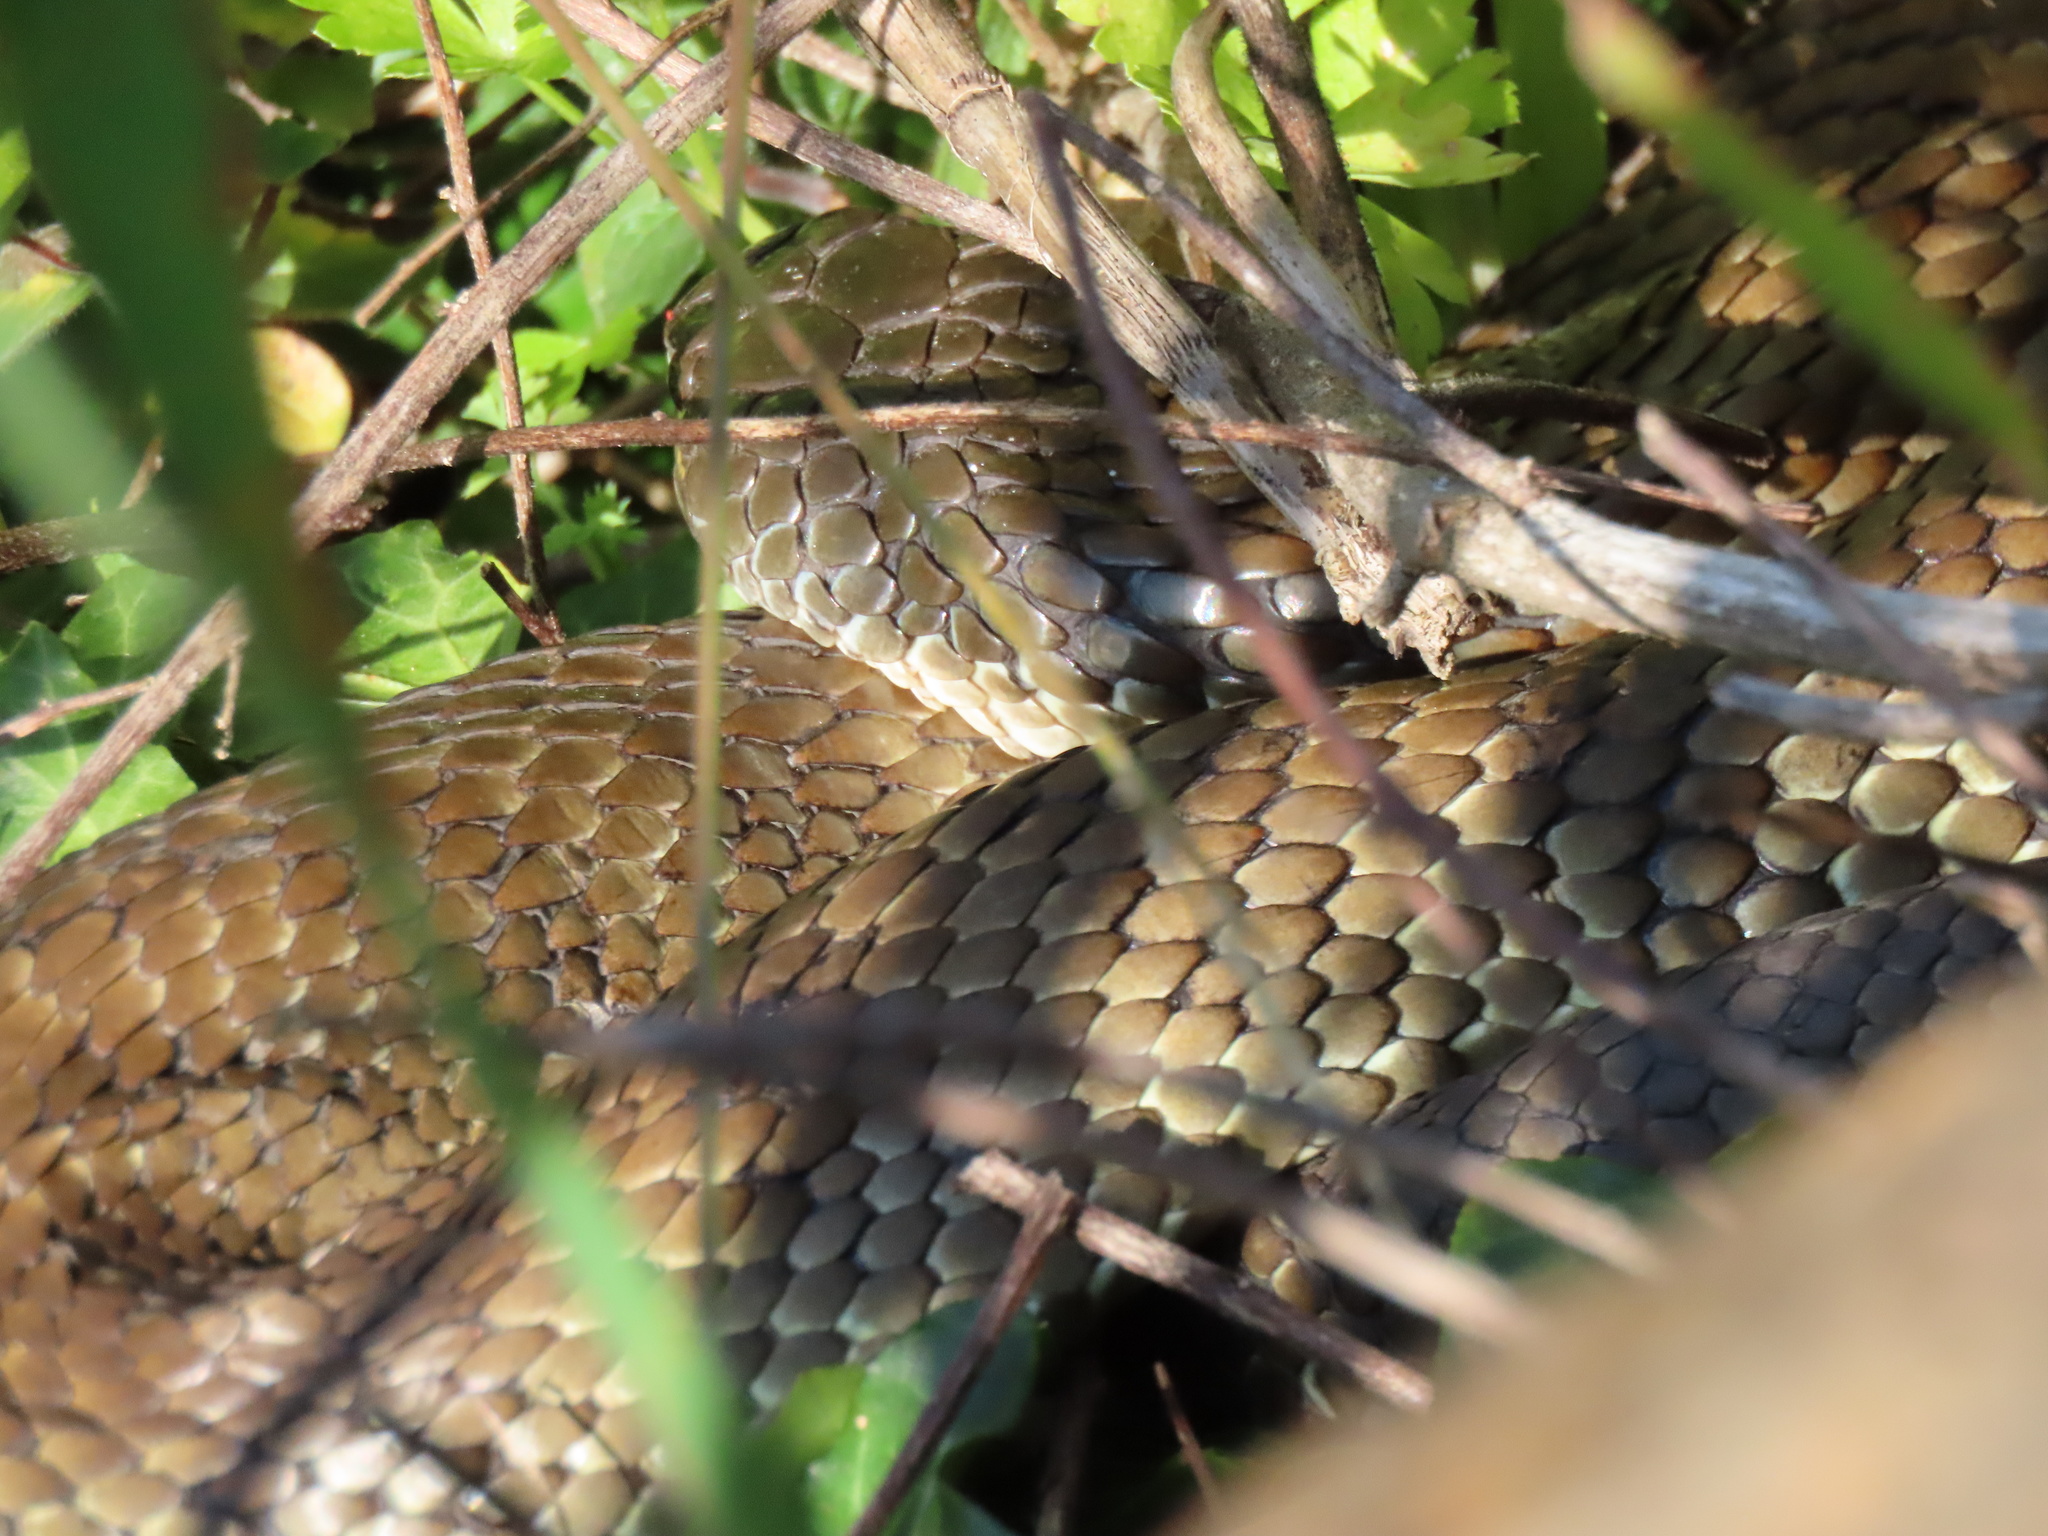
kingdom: Animalia
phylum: Chordata
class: Squamata
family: Elapidae
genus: Notechis
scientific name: Notechis scutatus
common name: Mainland tiger snake
